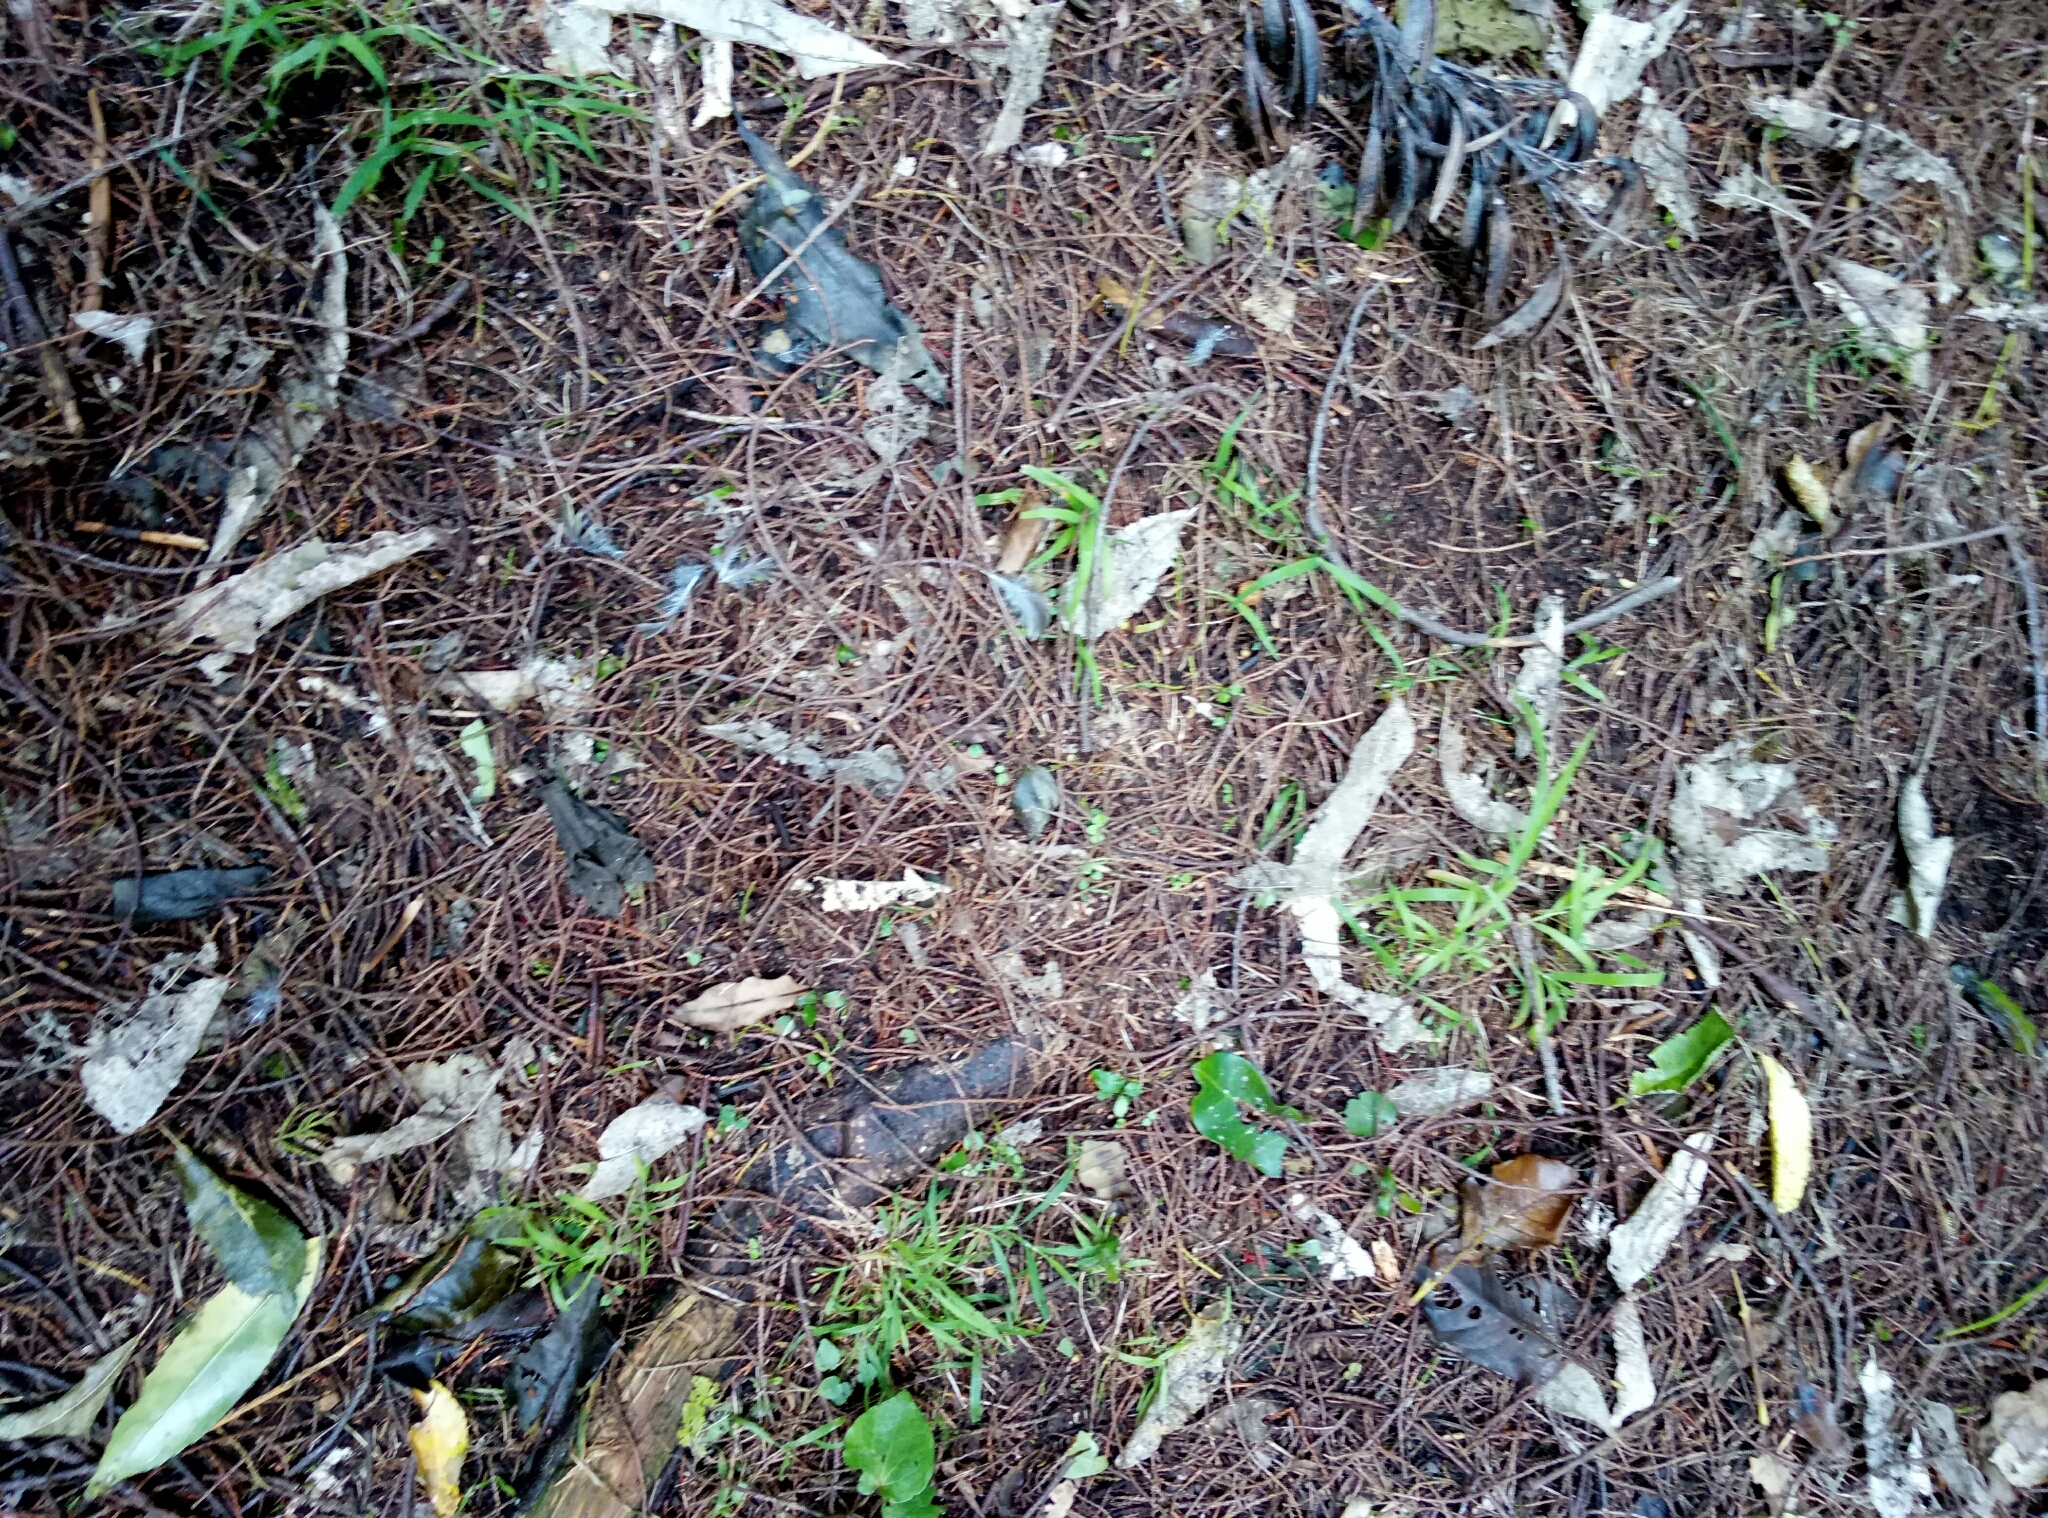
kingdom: Plantae
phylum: Tracheophyta
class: Pinopsida
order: Pinales
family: Podocarpaceae
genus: Dacrycarpus
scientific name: Dacrycarpus dacrydioides
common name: White pine
